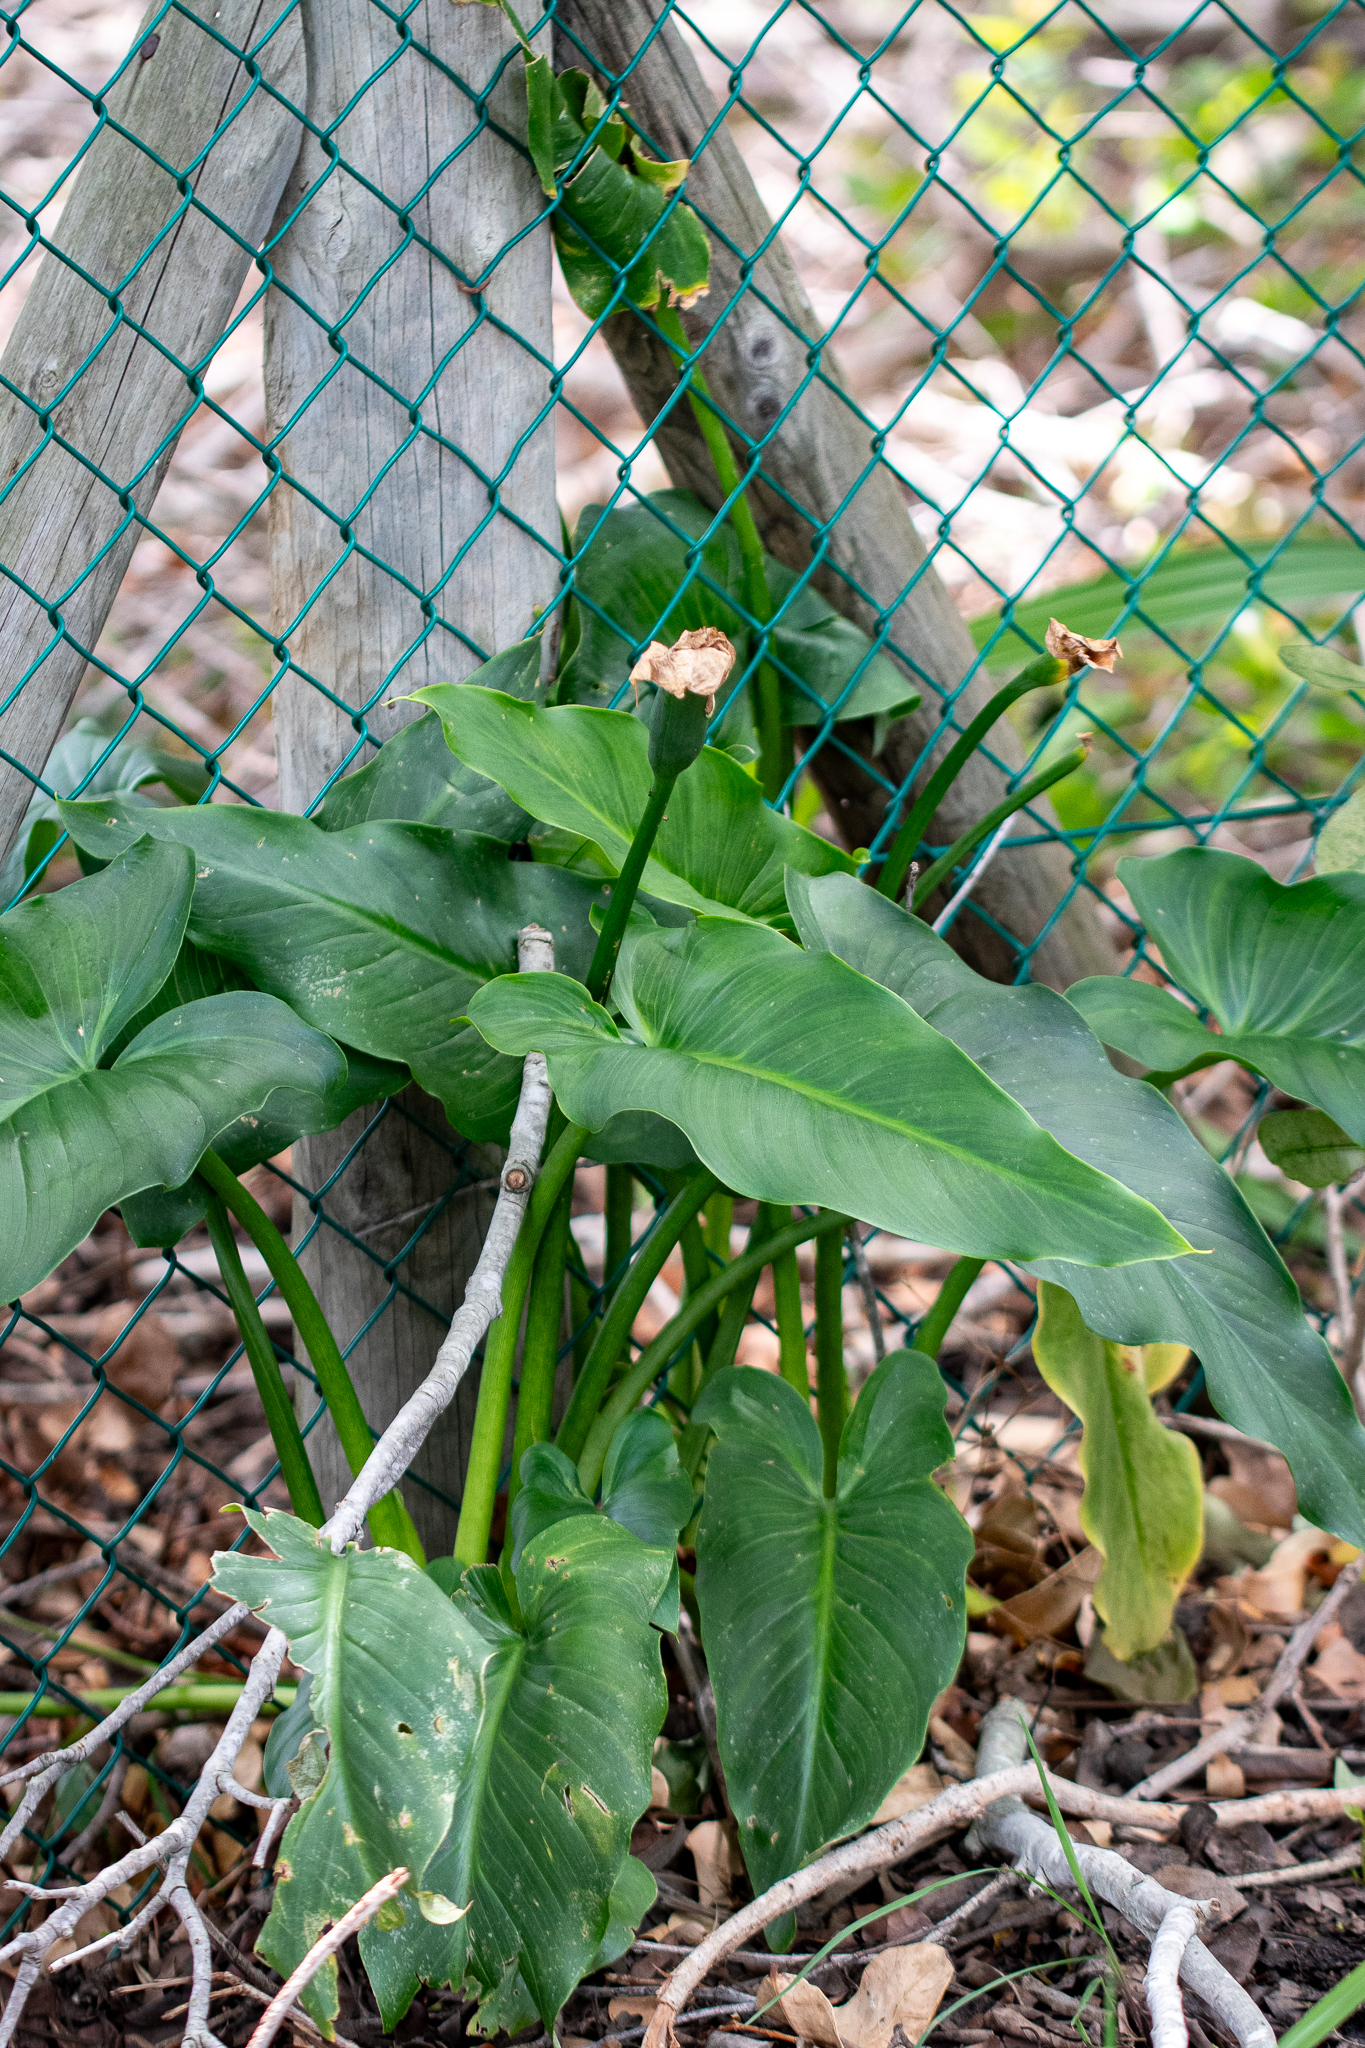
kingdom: Plantae
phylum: Tracheophyta
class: Liliopsida
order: Alismatales
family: Araceae
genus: Zantedeschia
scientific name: Zantedeschia aethiopica
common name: Altar-lily
